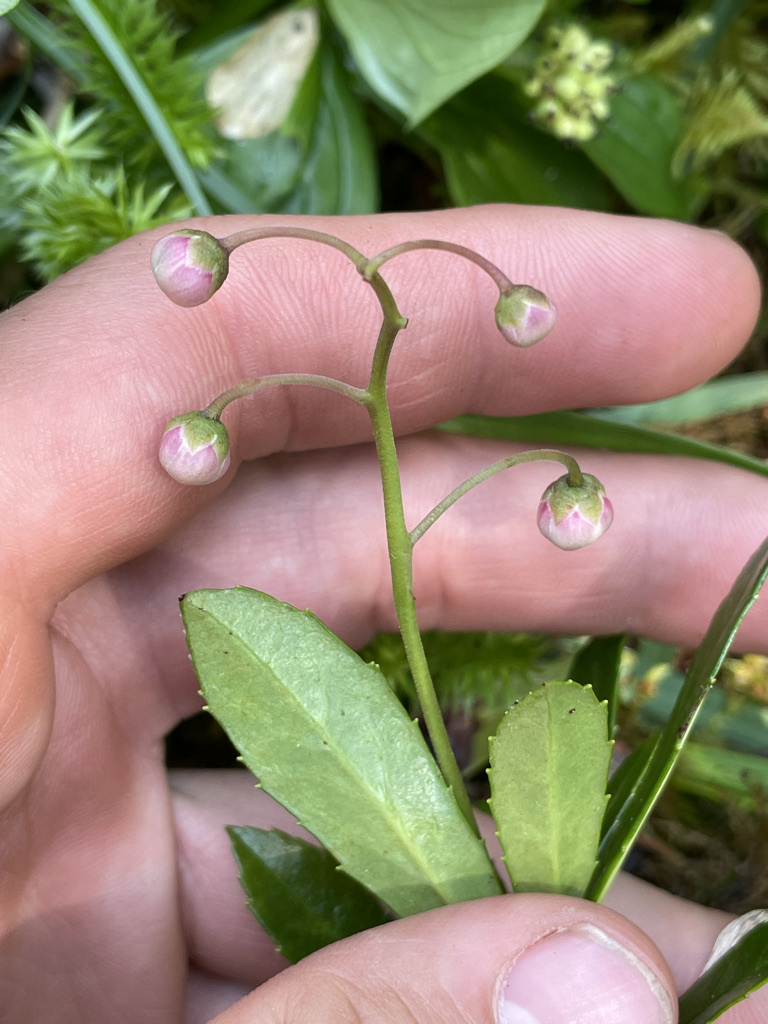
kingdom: Plantae
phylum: Tracheophyta
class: Magnoliopsida
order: Ericales
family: Ericaceae
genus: Chimaphila
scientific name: Chimaphila umbellata
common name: Pipsissewa
